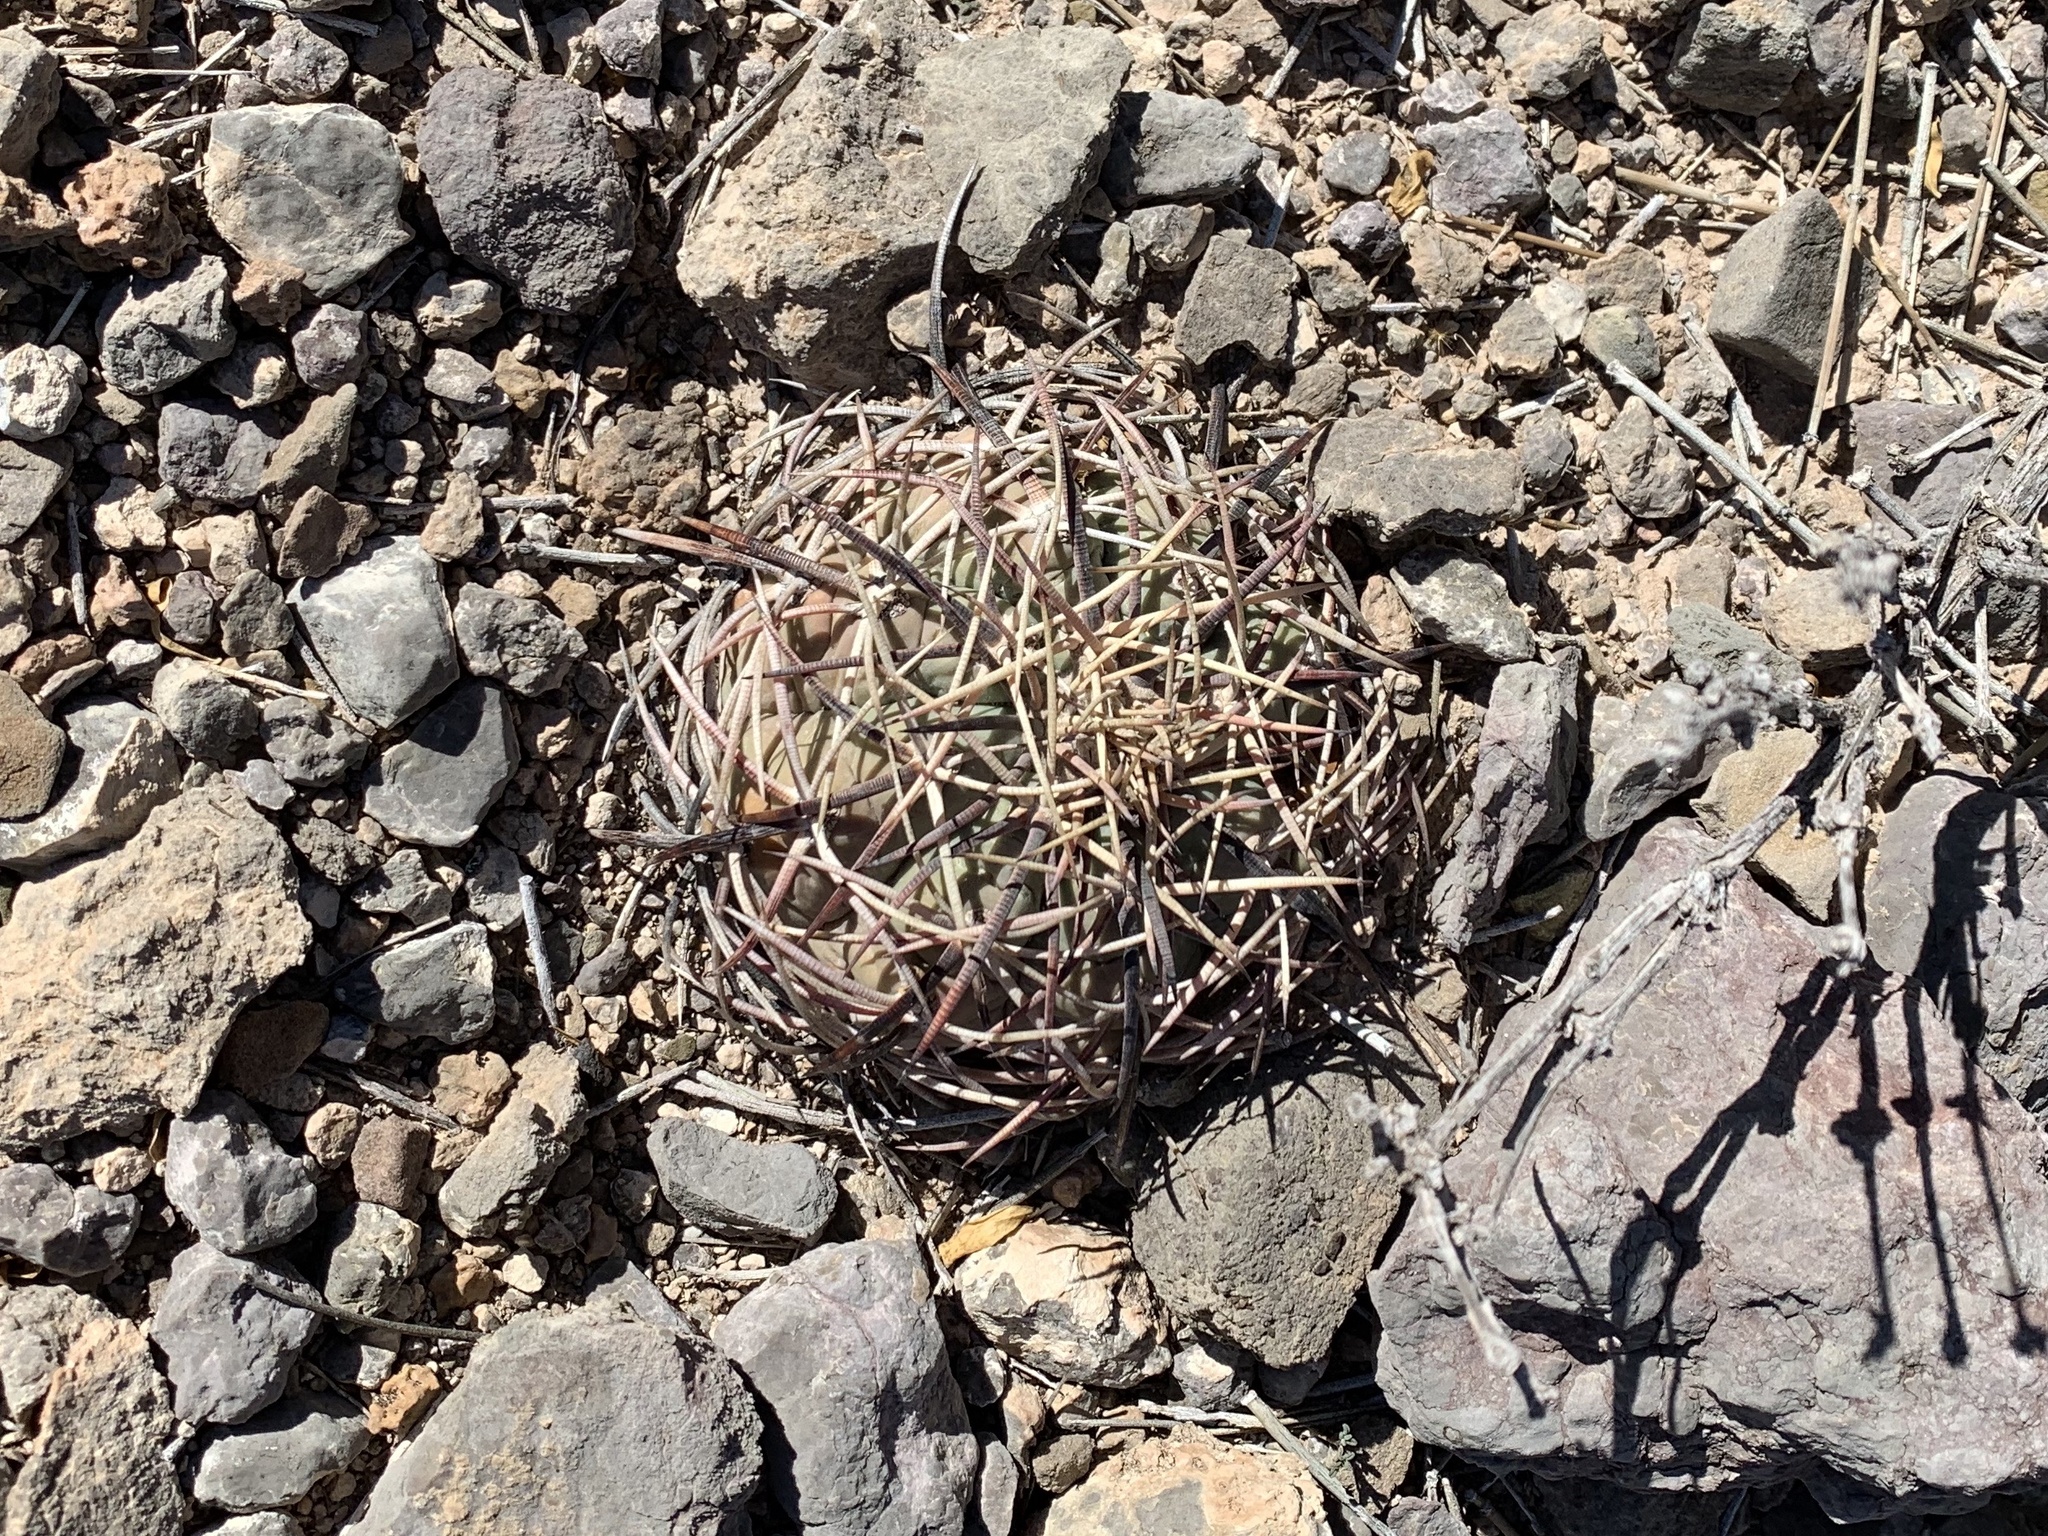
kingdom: Plantae
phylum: Tracheophyta
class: Magnoliopsida
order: Caryophyllales
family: Cactaceae
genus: Echinocactus
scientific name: Echinocactus horizonthalonius
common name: Devilshead
